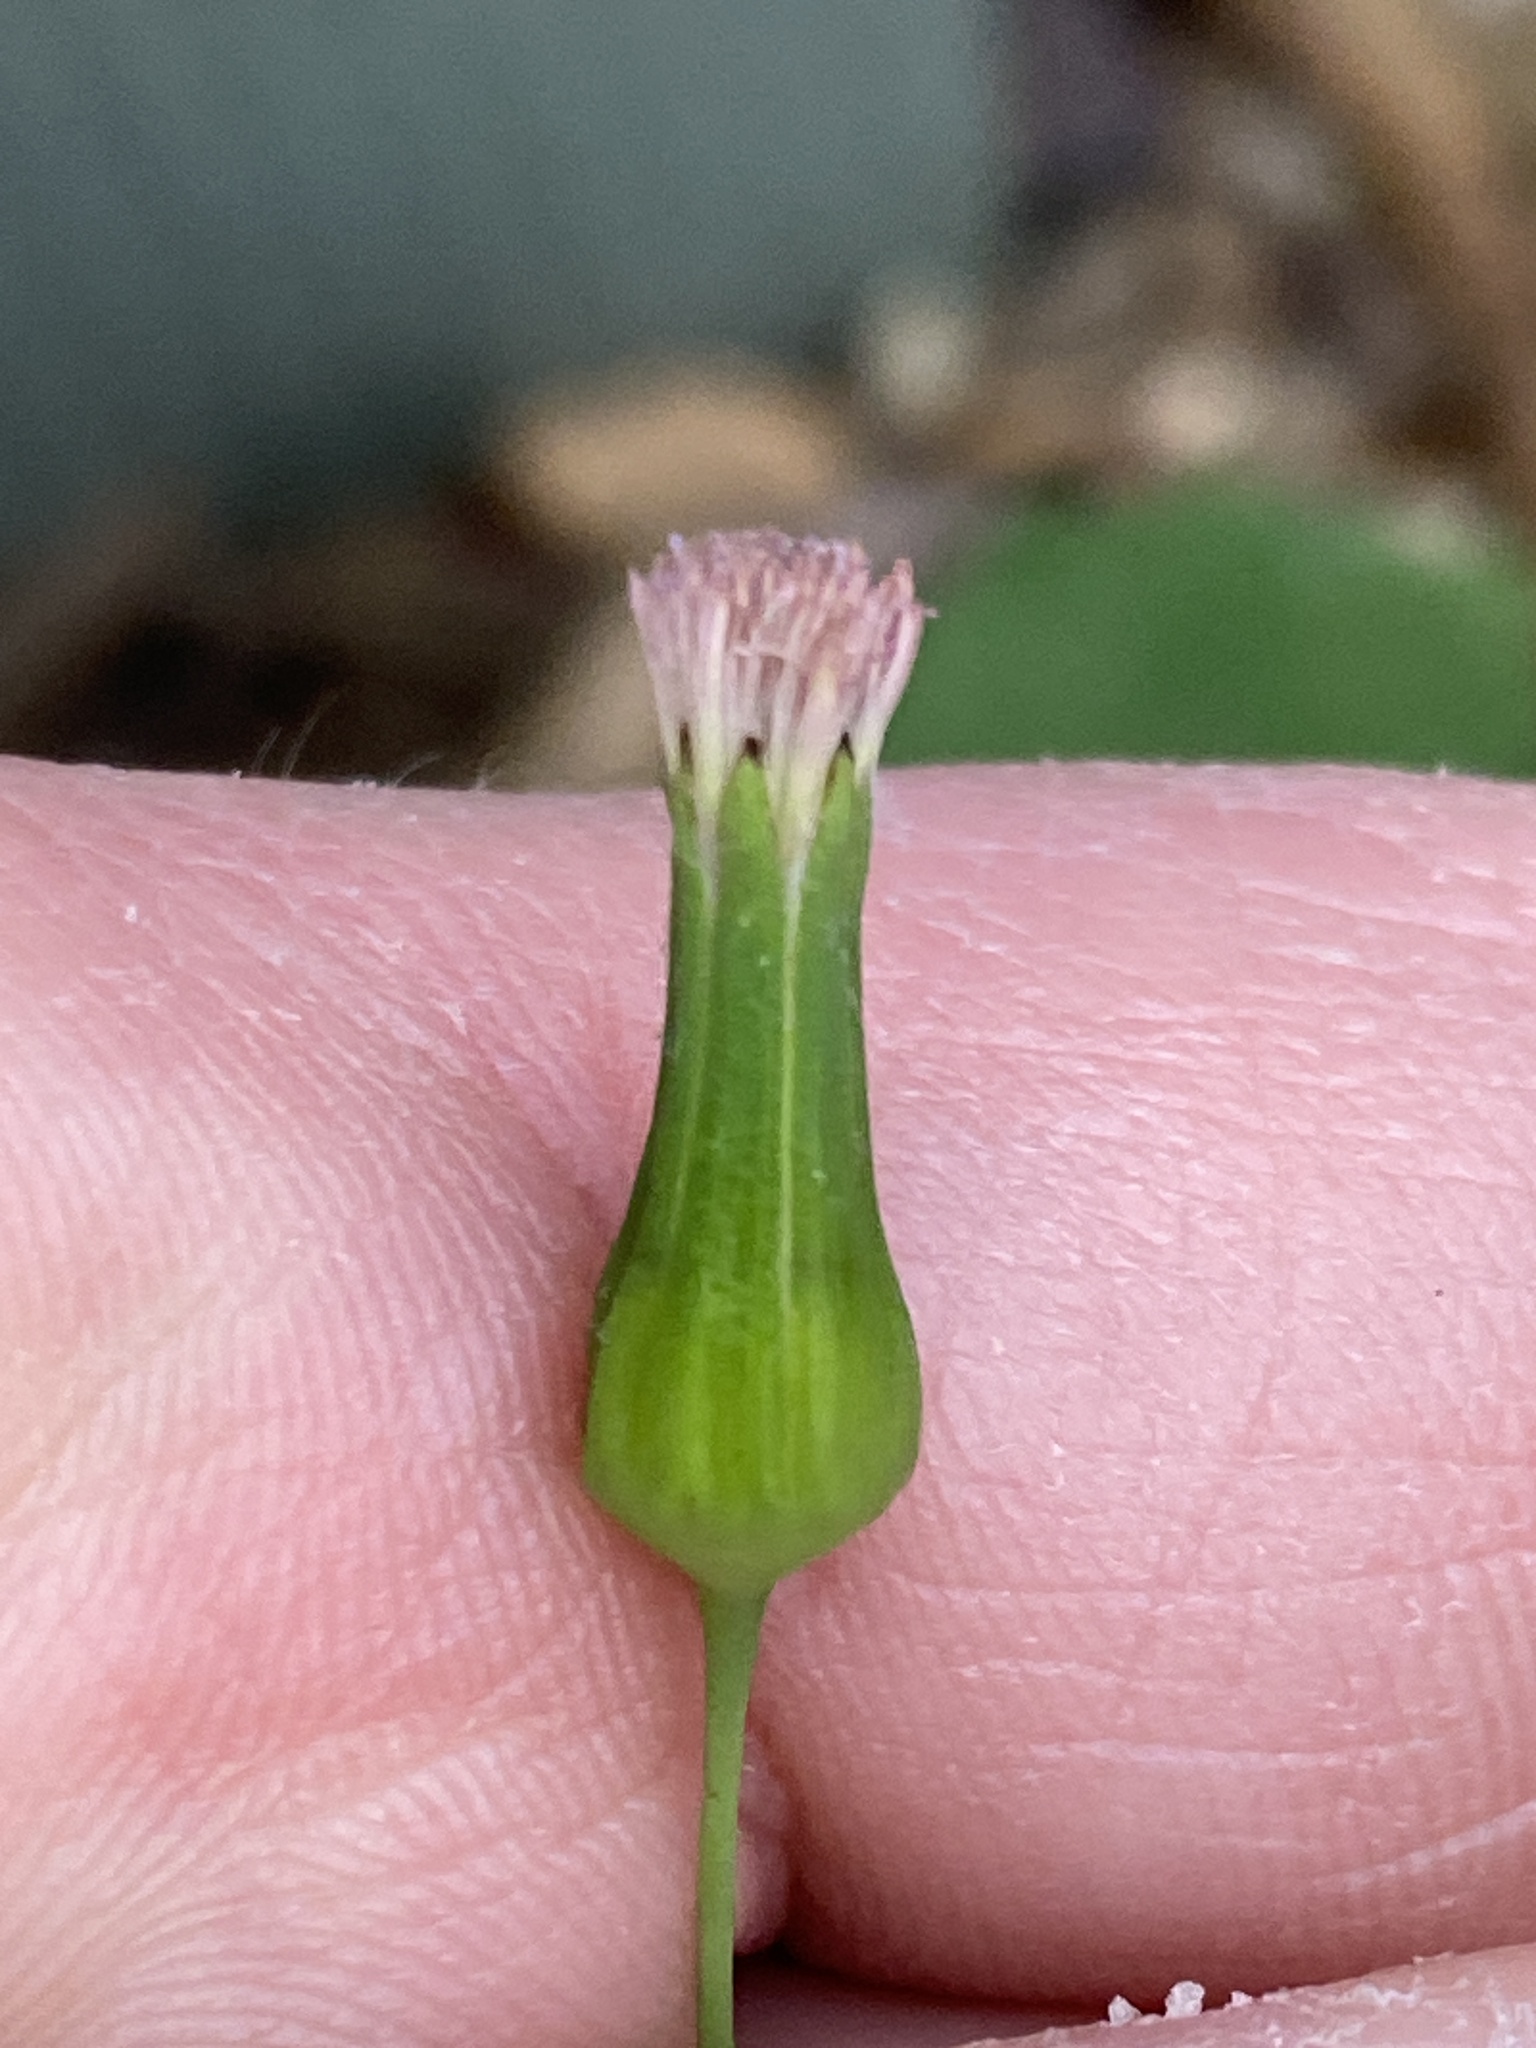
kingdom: Plantae
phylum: Tracheophyta
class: Magnoliopsida
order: Asterales
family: Asteraceae
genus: Emilia
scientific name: Emilia javanica
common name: Tassel-flower
